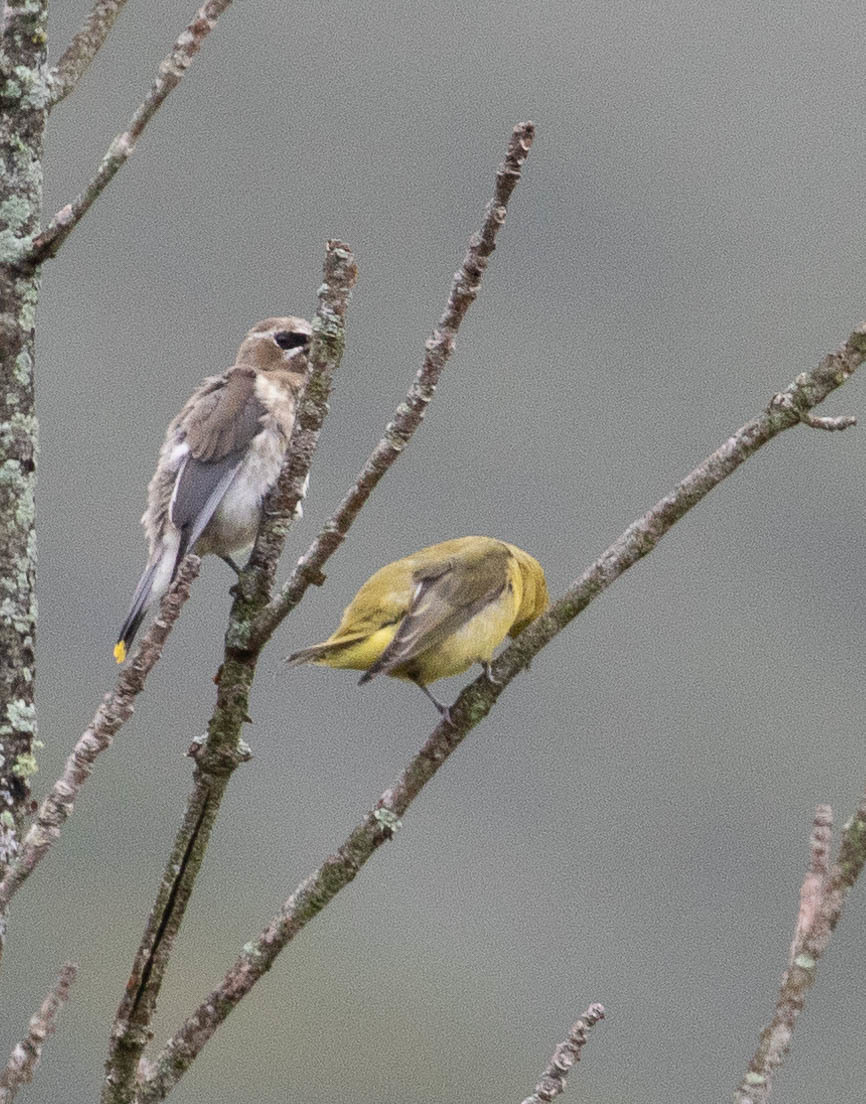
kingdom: Animalia
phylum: Chordata
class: Aves
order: Passeriformes
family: Bombycillidae
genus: Bombycilla
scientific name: Bombycilla cedrorum
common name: Cedar waxwing
